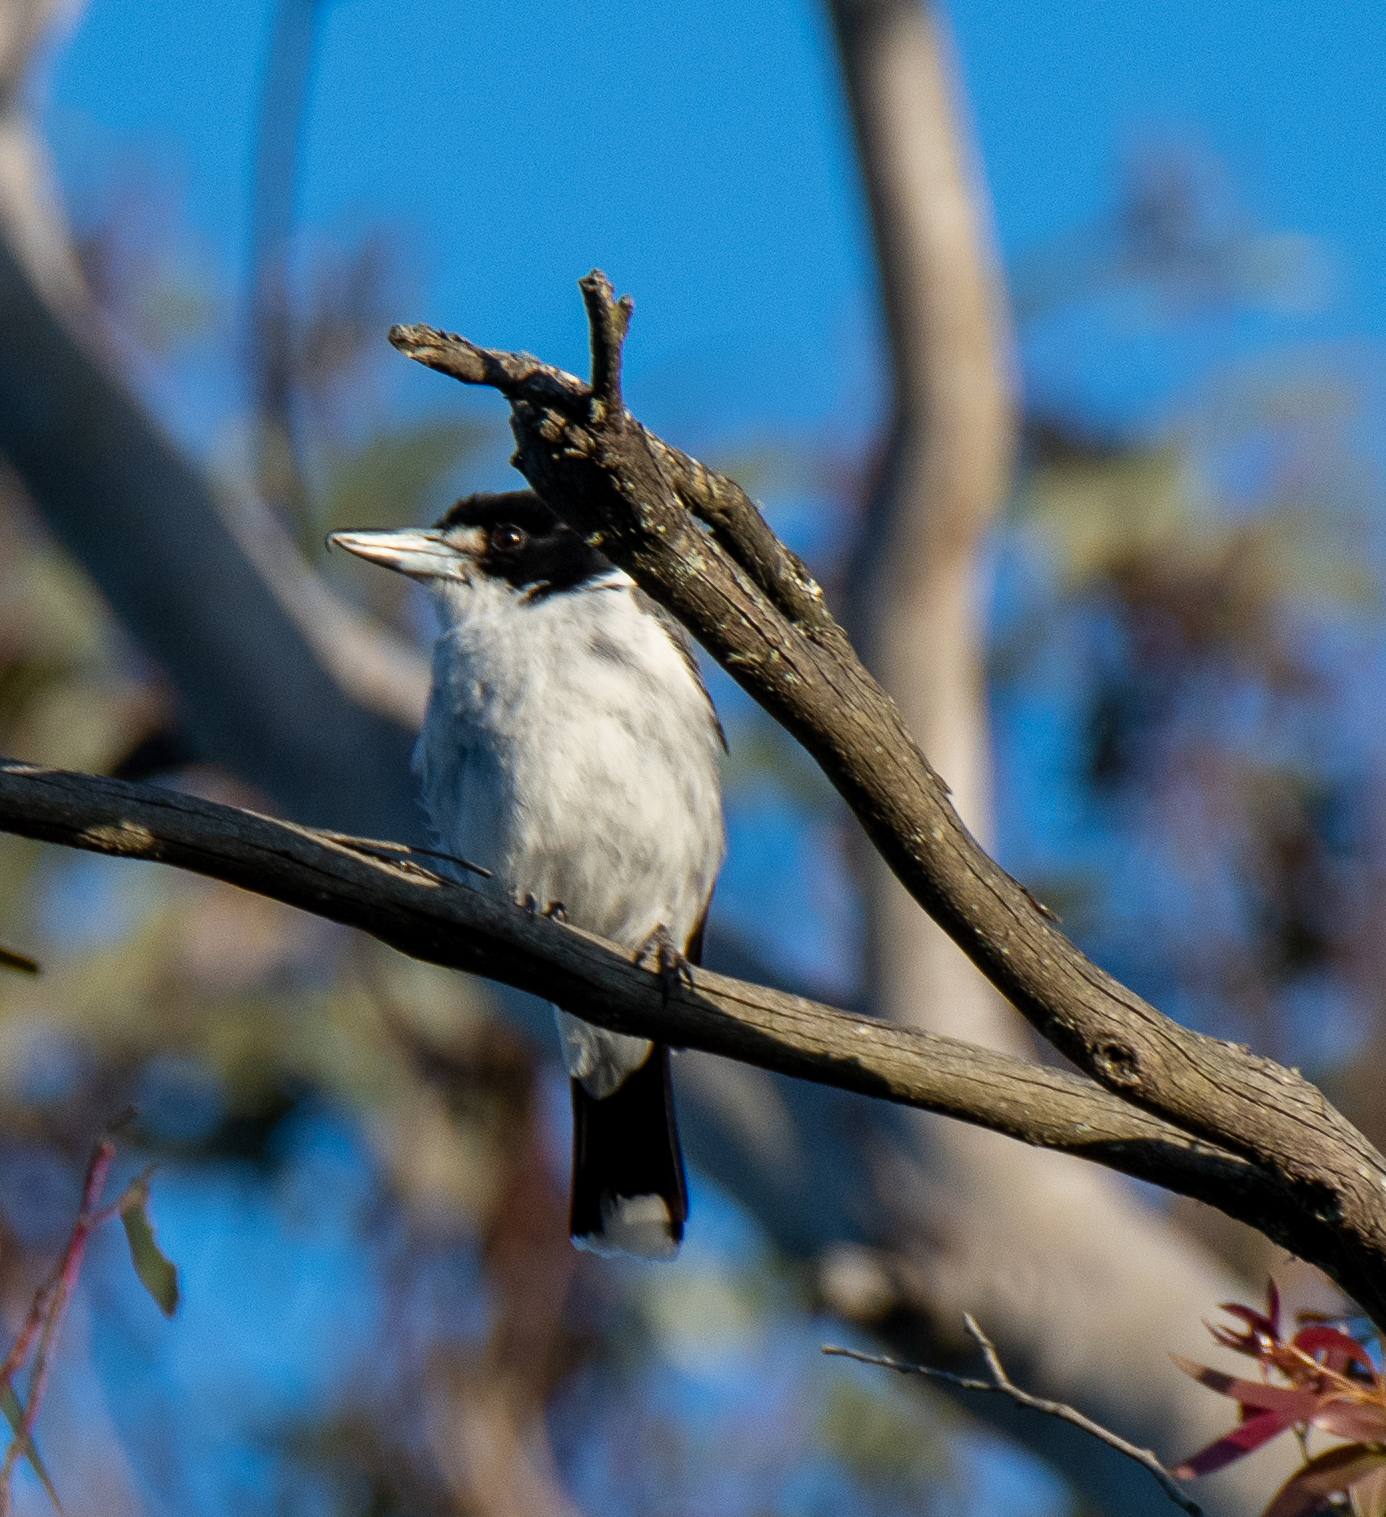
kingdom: Animalia
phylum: Chordata
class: Aves
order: Passeriformes
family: Cracticidae
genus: Cracticus
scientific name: Cracticus torquatus
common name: Grey butcherbird
